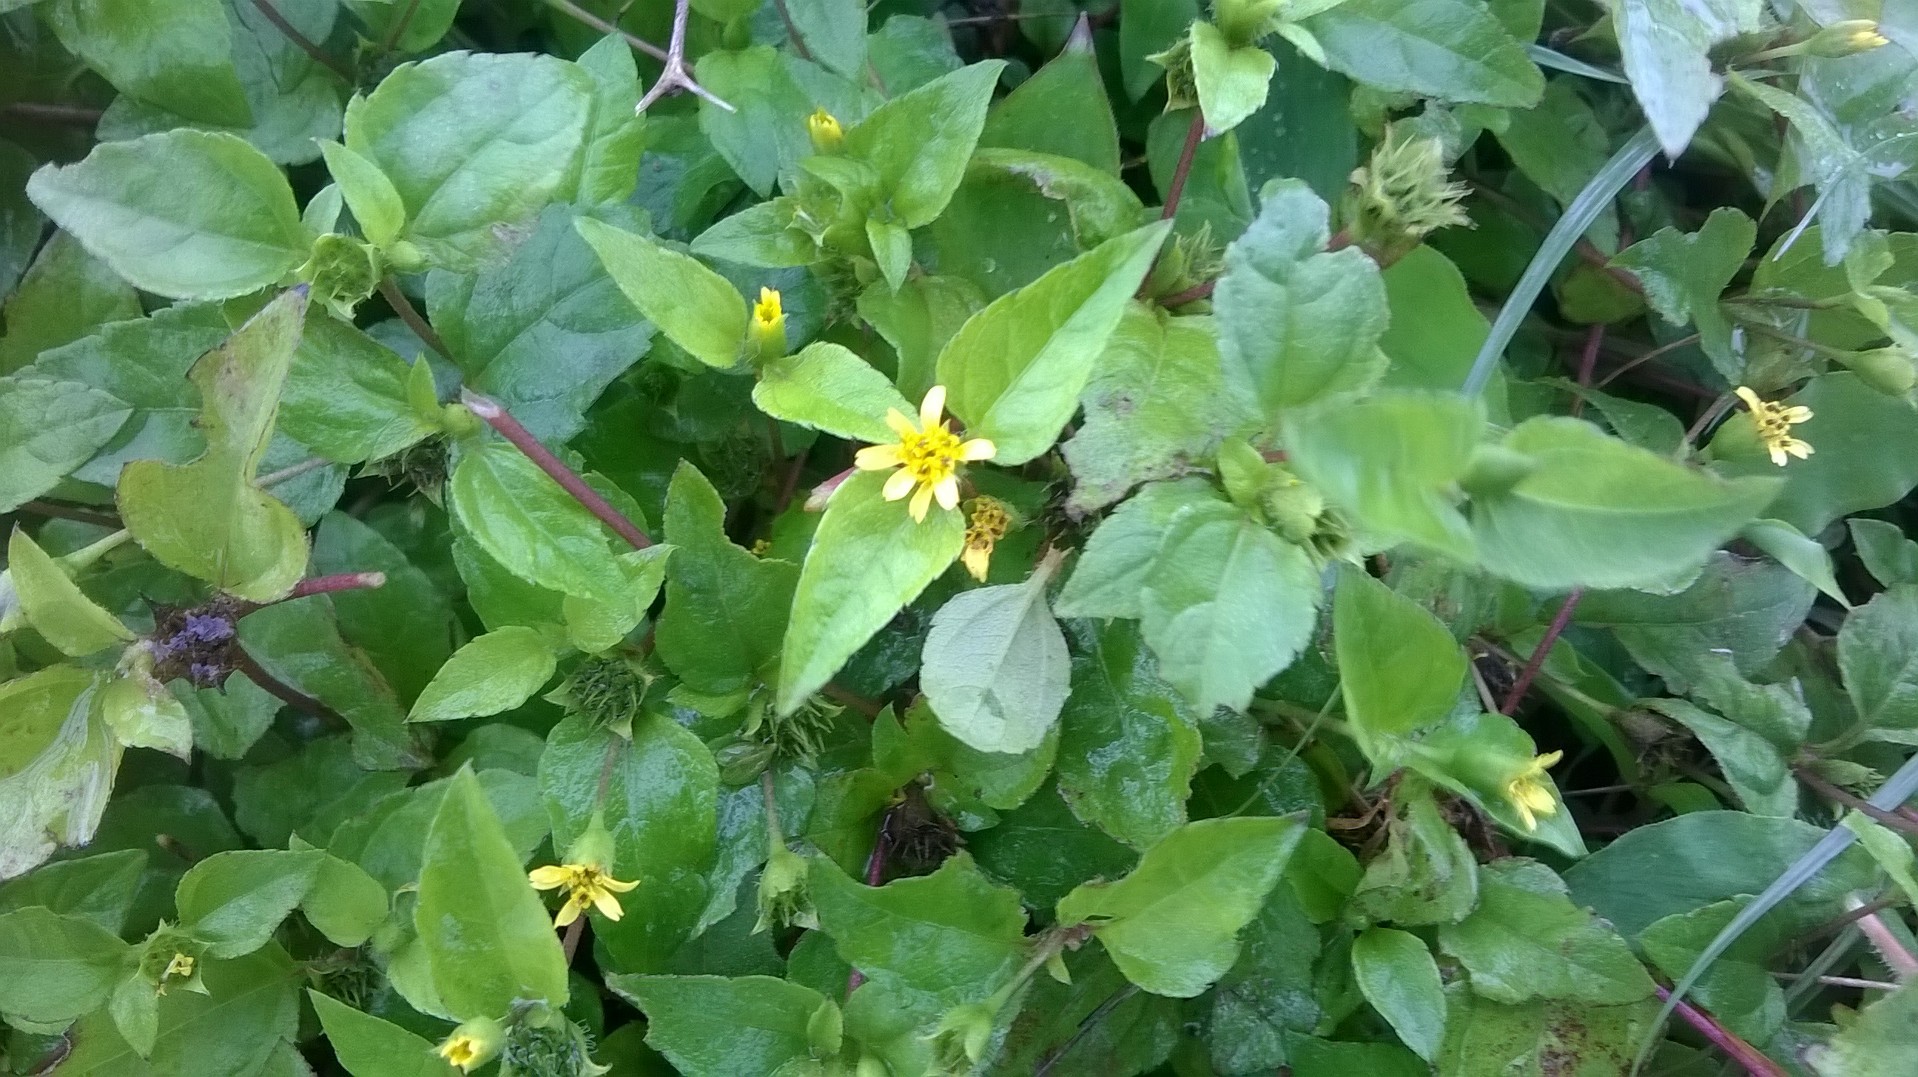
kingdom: Plantae
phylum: Tracheophyta
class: Magnoliopsida
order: Asterales
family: Asteraceae
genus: Synedrella
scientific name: Synedrella nodiflora
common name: Nodeweed
